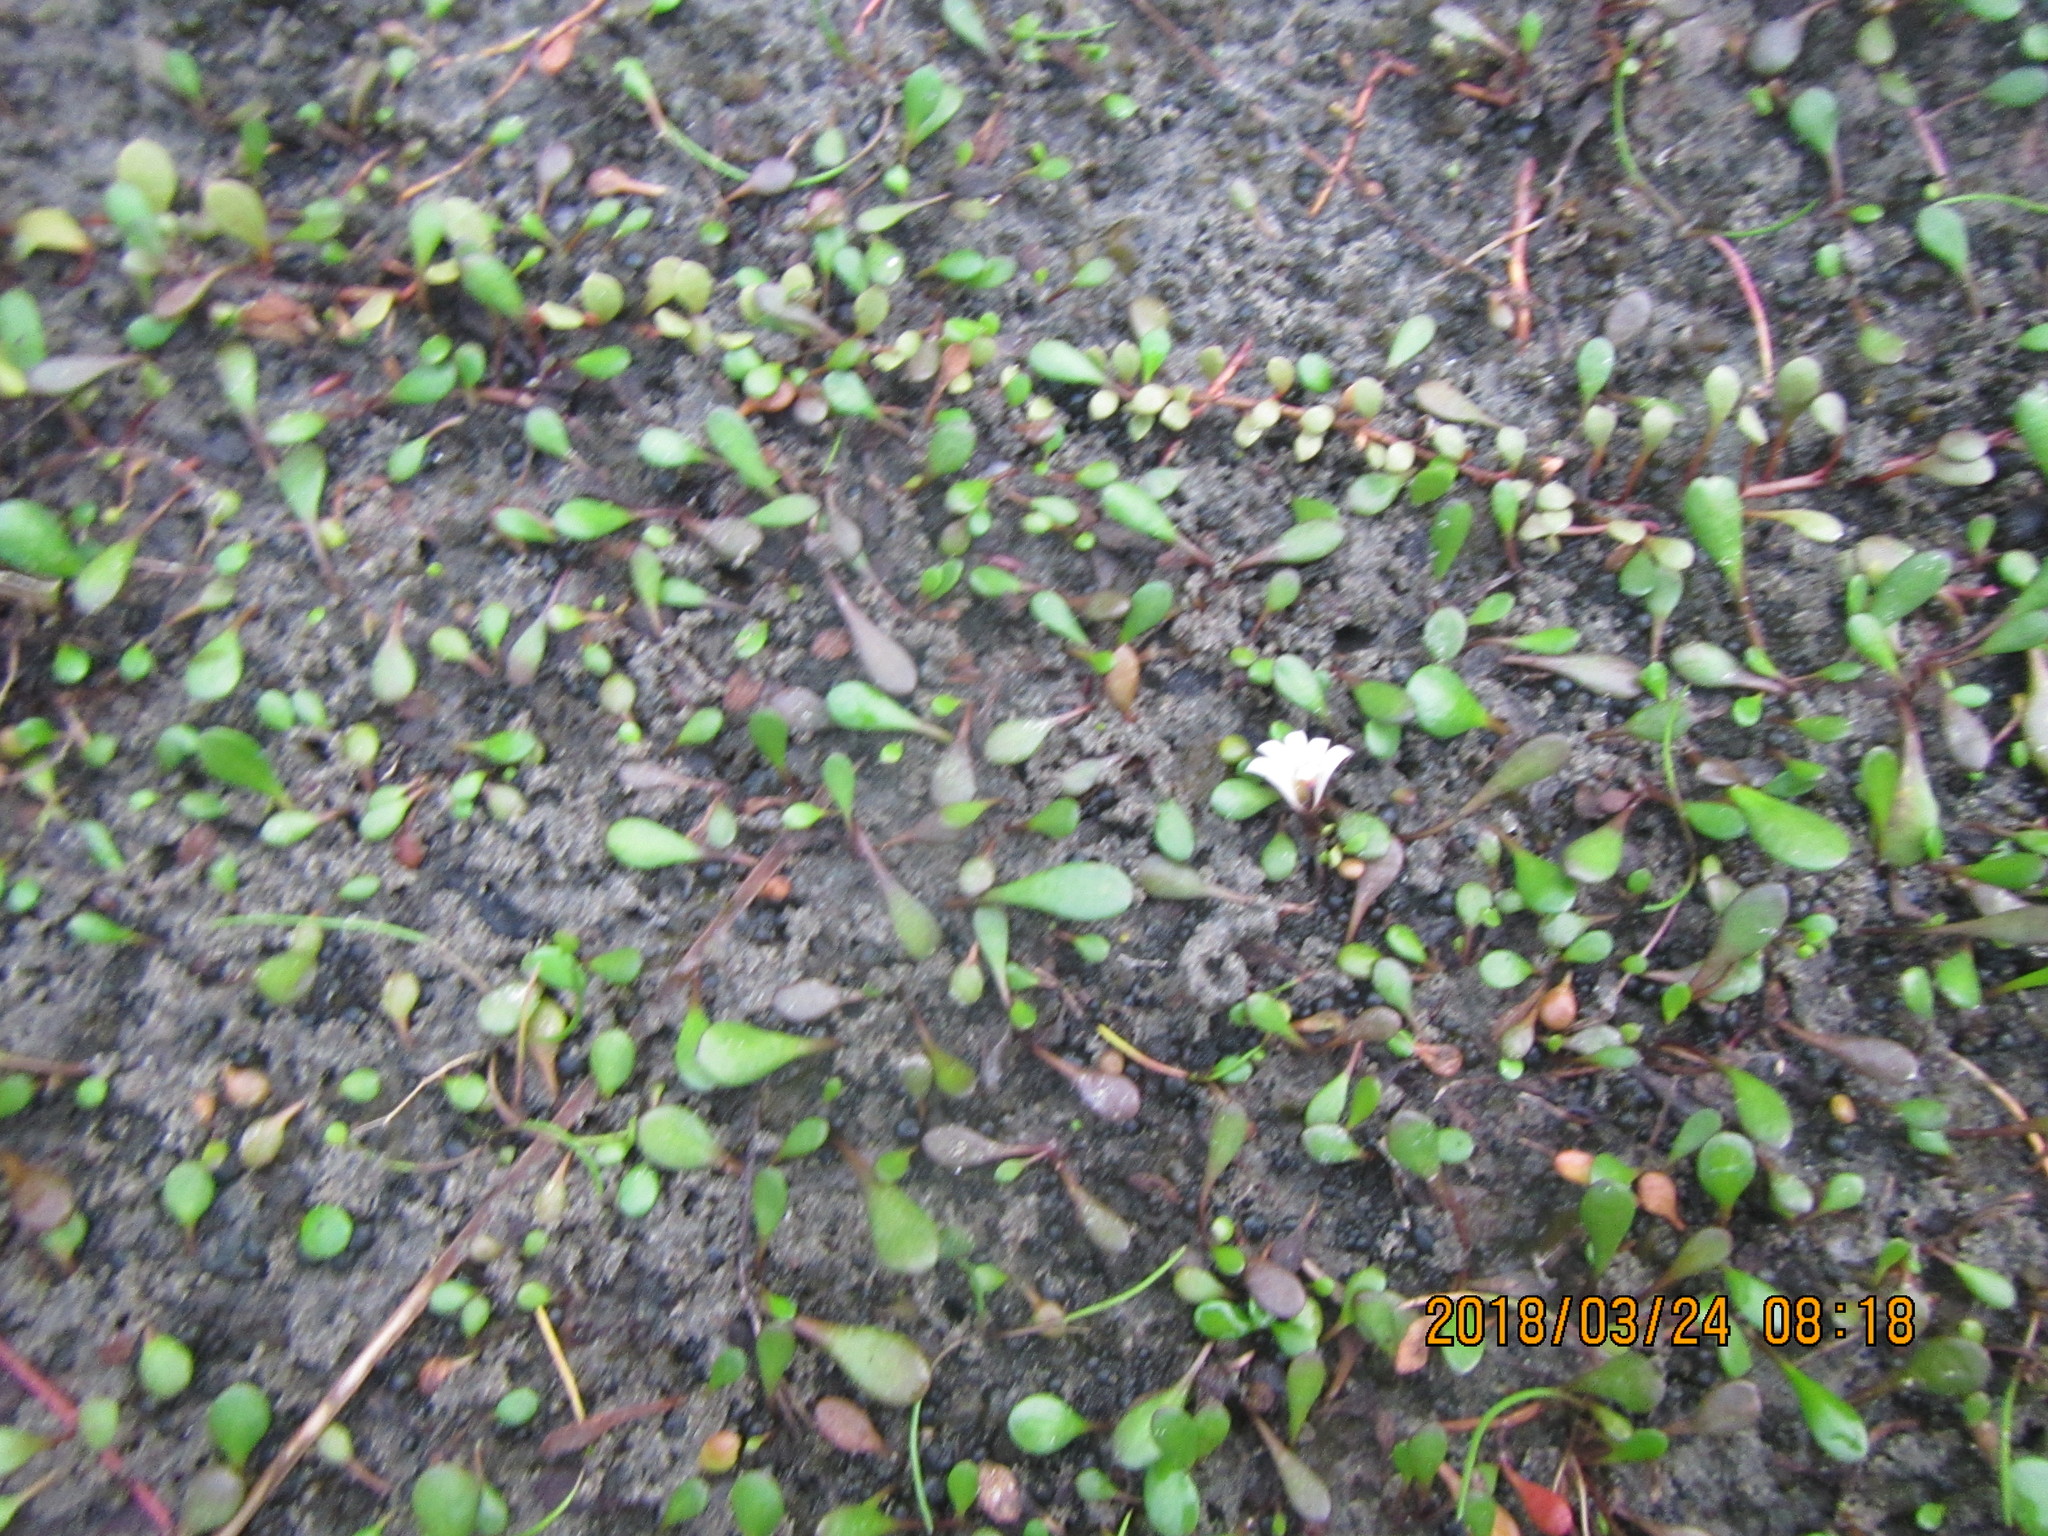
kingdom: Plantae
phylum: Tracheophyta
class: Magnoliopsida
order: Asterales
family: Goodeniaceae
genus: Goodenia
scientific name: Goodenia radicans
